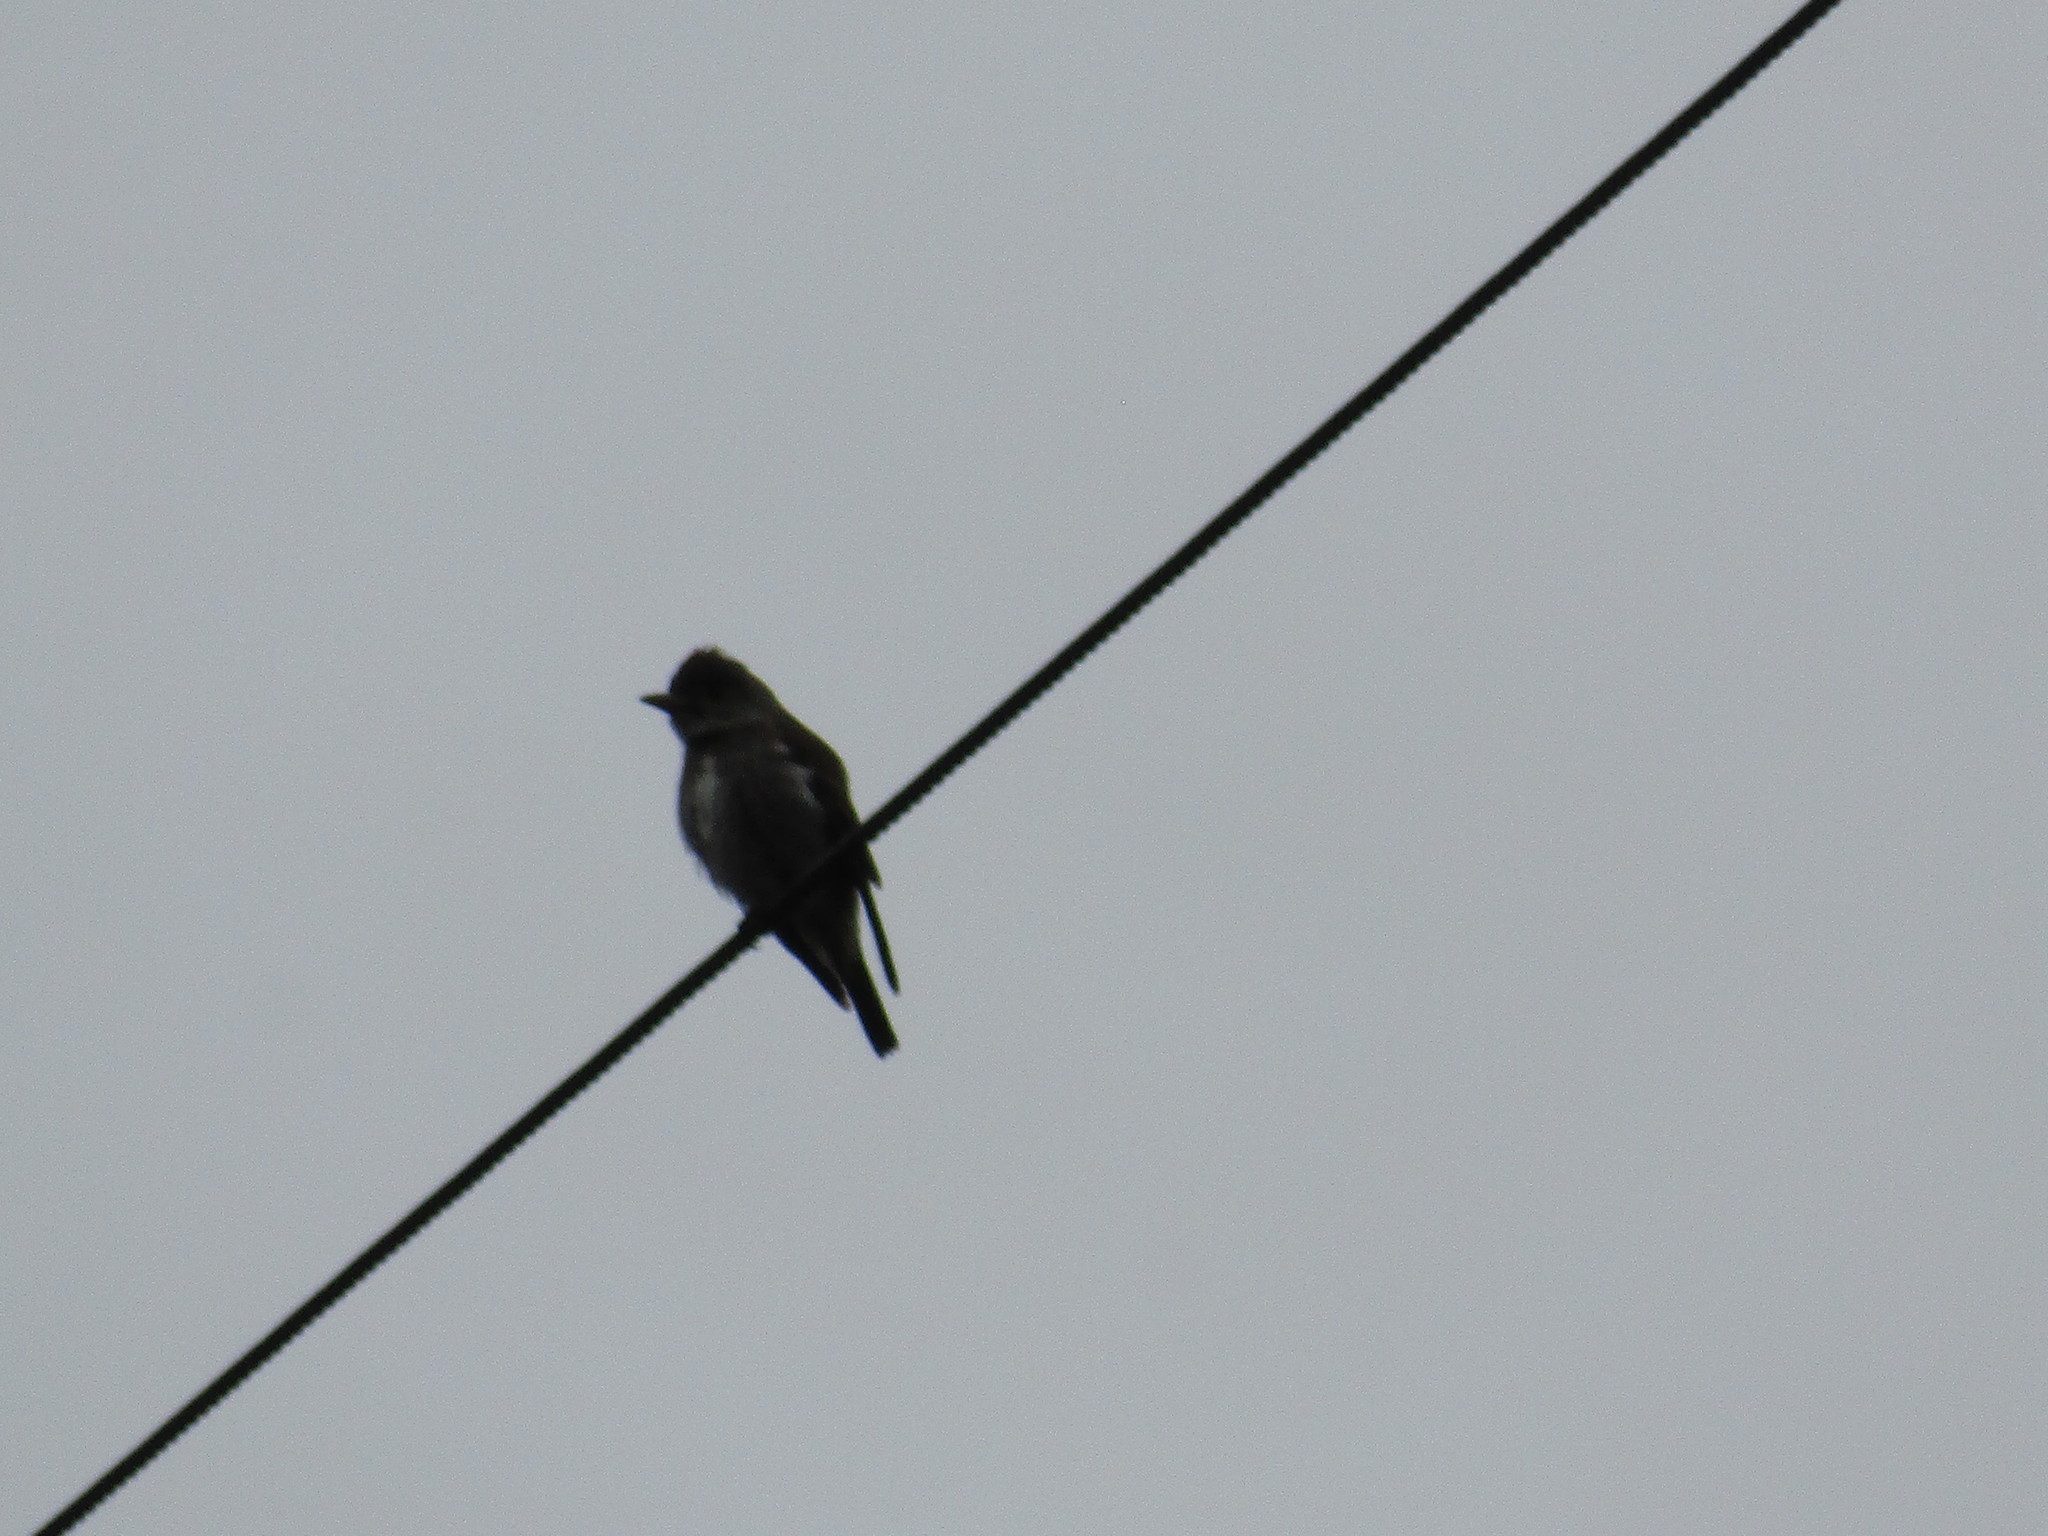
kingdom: Animalia
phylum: Chordata
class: Aves
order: Passeriformes
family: Tyrannidae
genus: Contopus
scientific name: Contopus cooperi
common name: Olive-sided flycatcher
